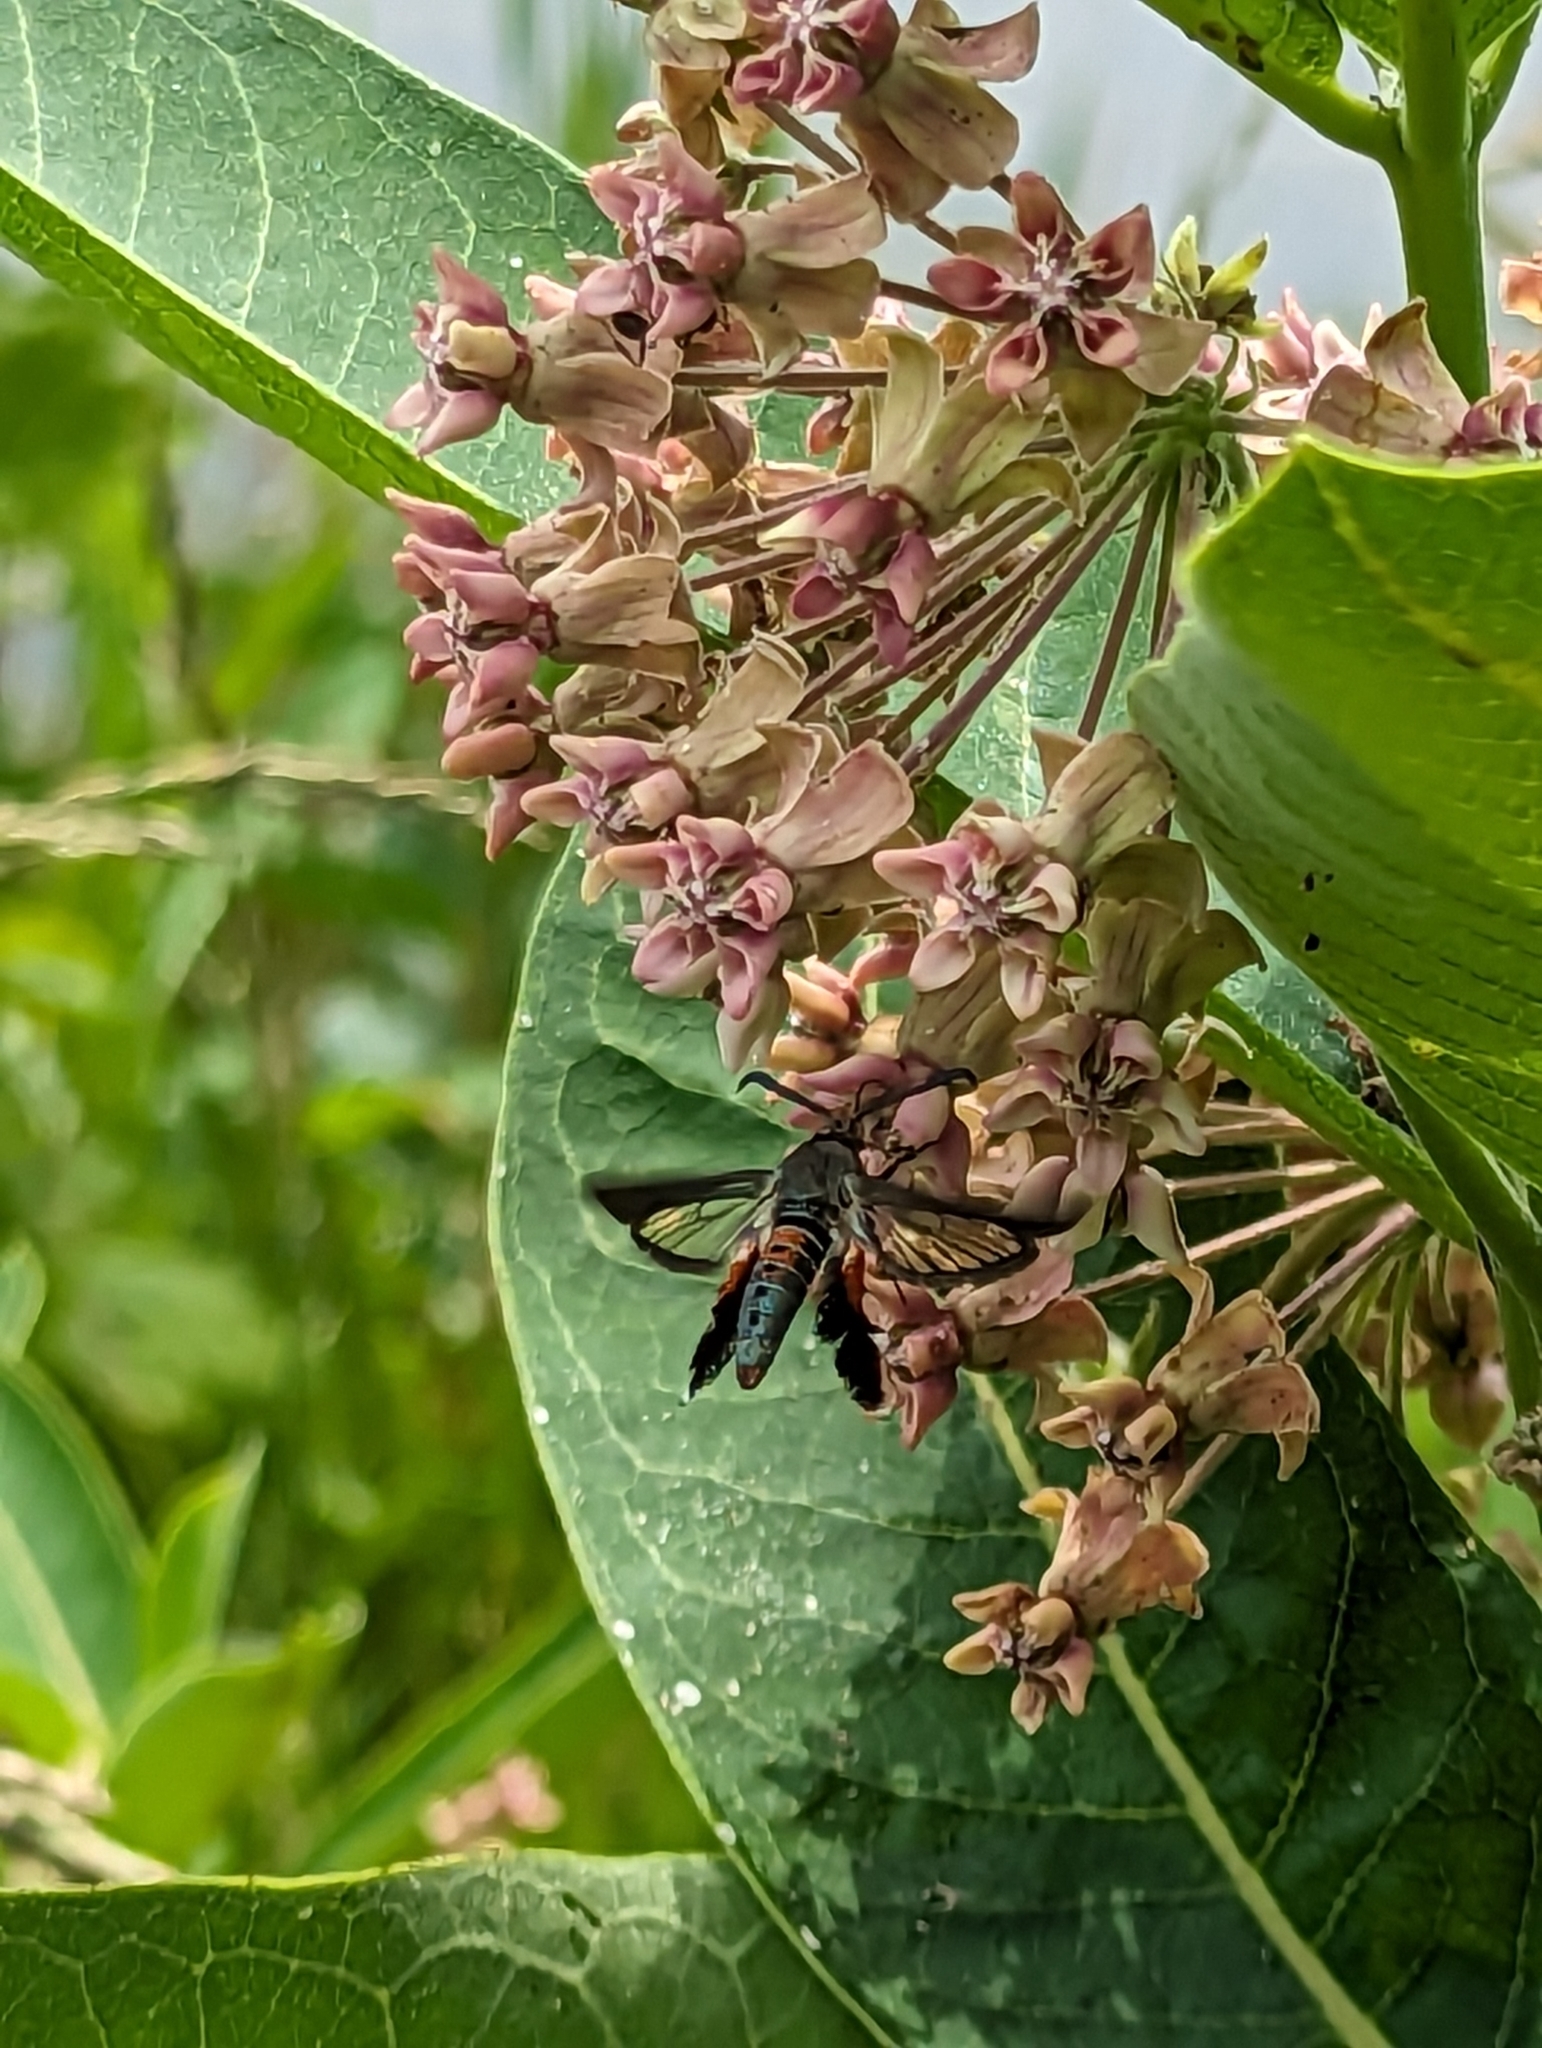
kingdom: Animalia
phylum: Arthropoda
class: Insecta
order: Lepidoptera
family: Sesiidae
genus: Eichlinia
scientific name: Eichlinia cucurbitae
